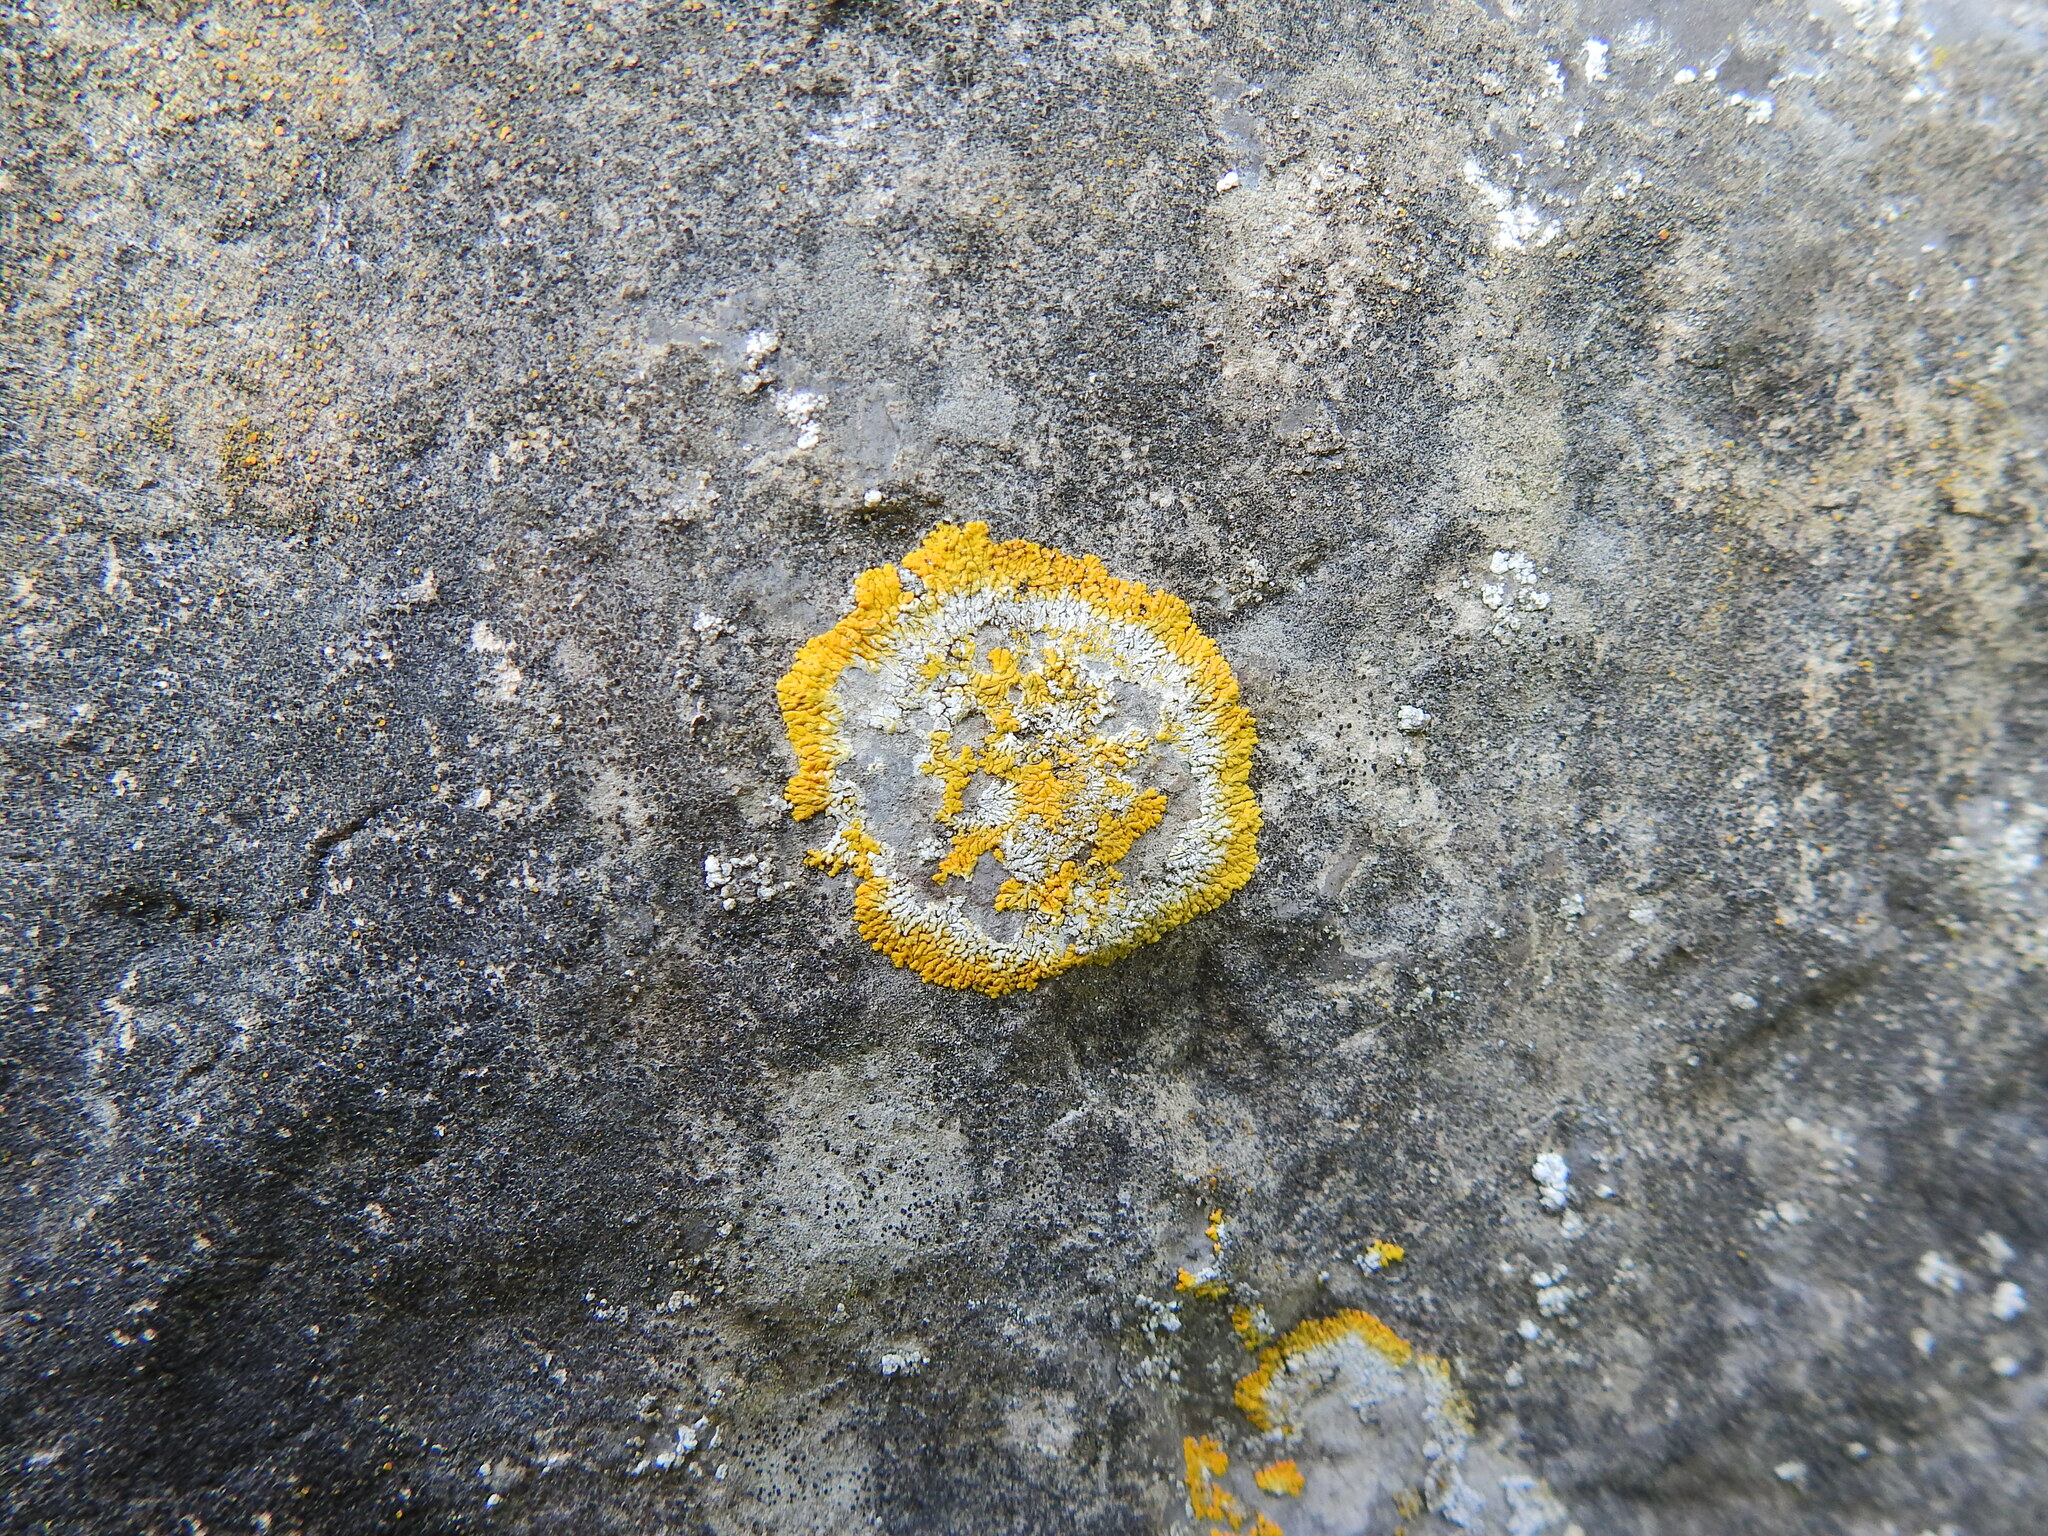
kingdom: Fungi
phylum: Ascomycota
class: Lecanoromycetes
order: Teloschistales
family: Teloschistaceae
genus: Variospora
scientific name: Variospora flavescens
